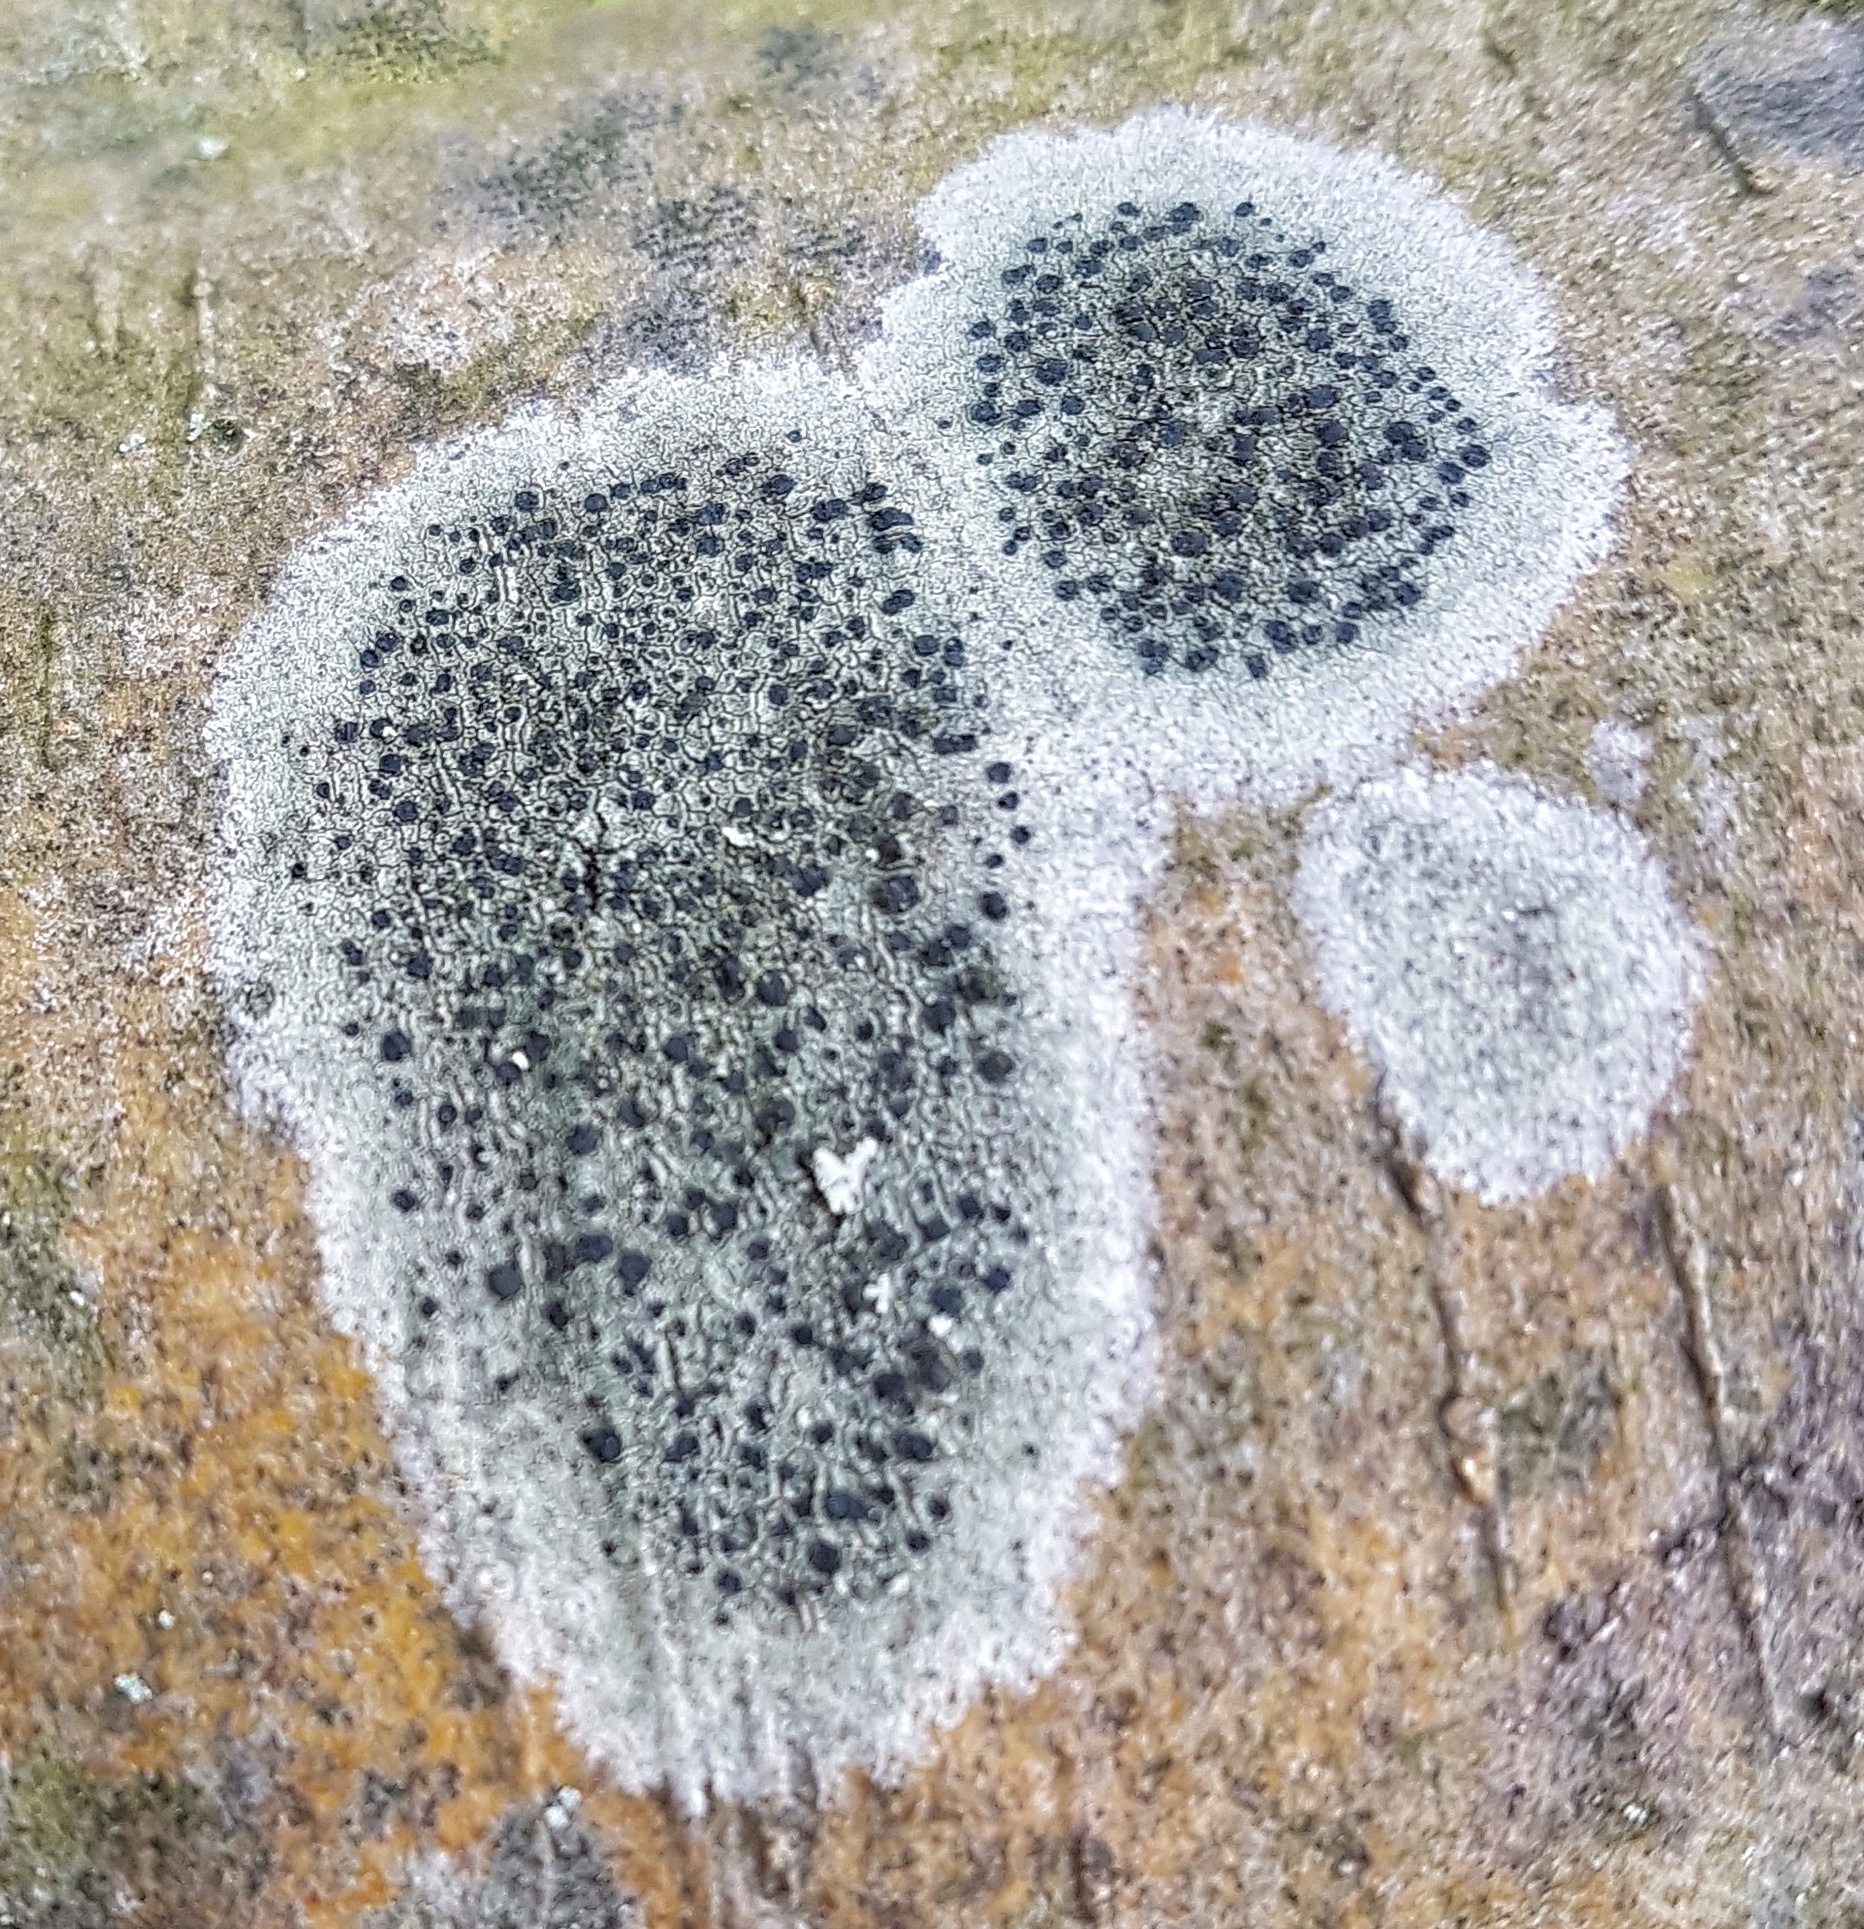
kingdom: Fungi
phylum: Ascomycota
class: Lecanoromycetes
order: Lecanorales
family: Lecanoraceae
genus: Lecidella
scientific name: Lecidella elaeochroma
